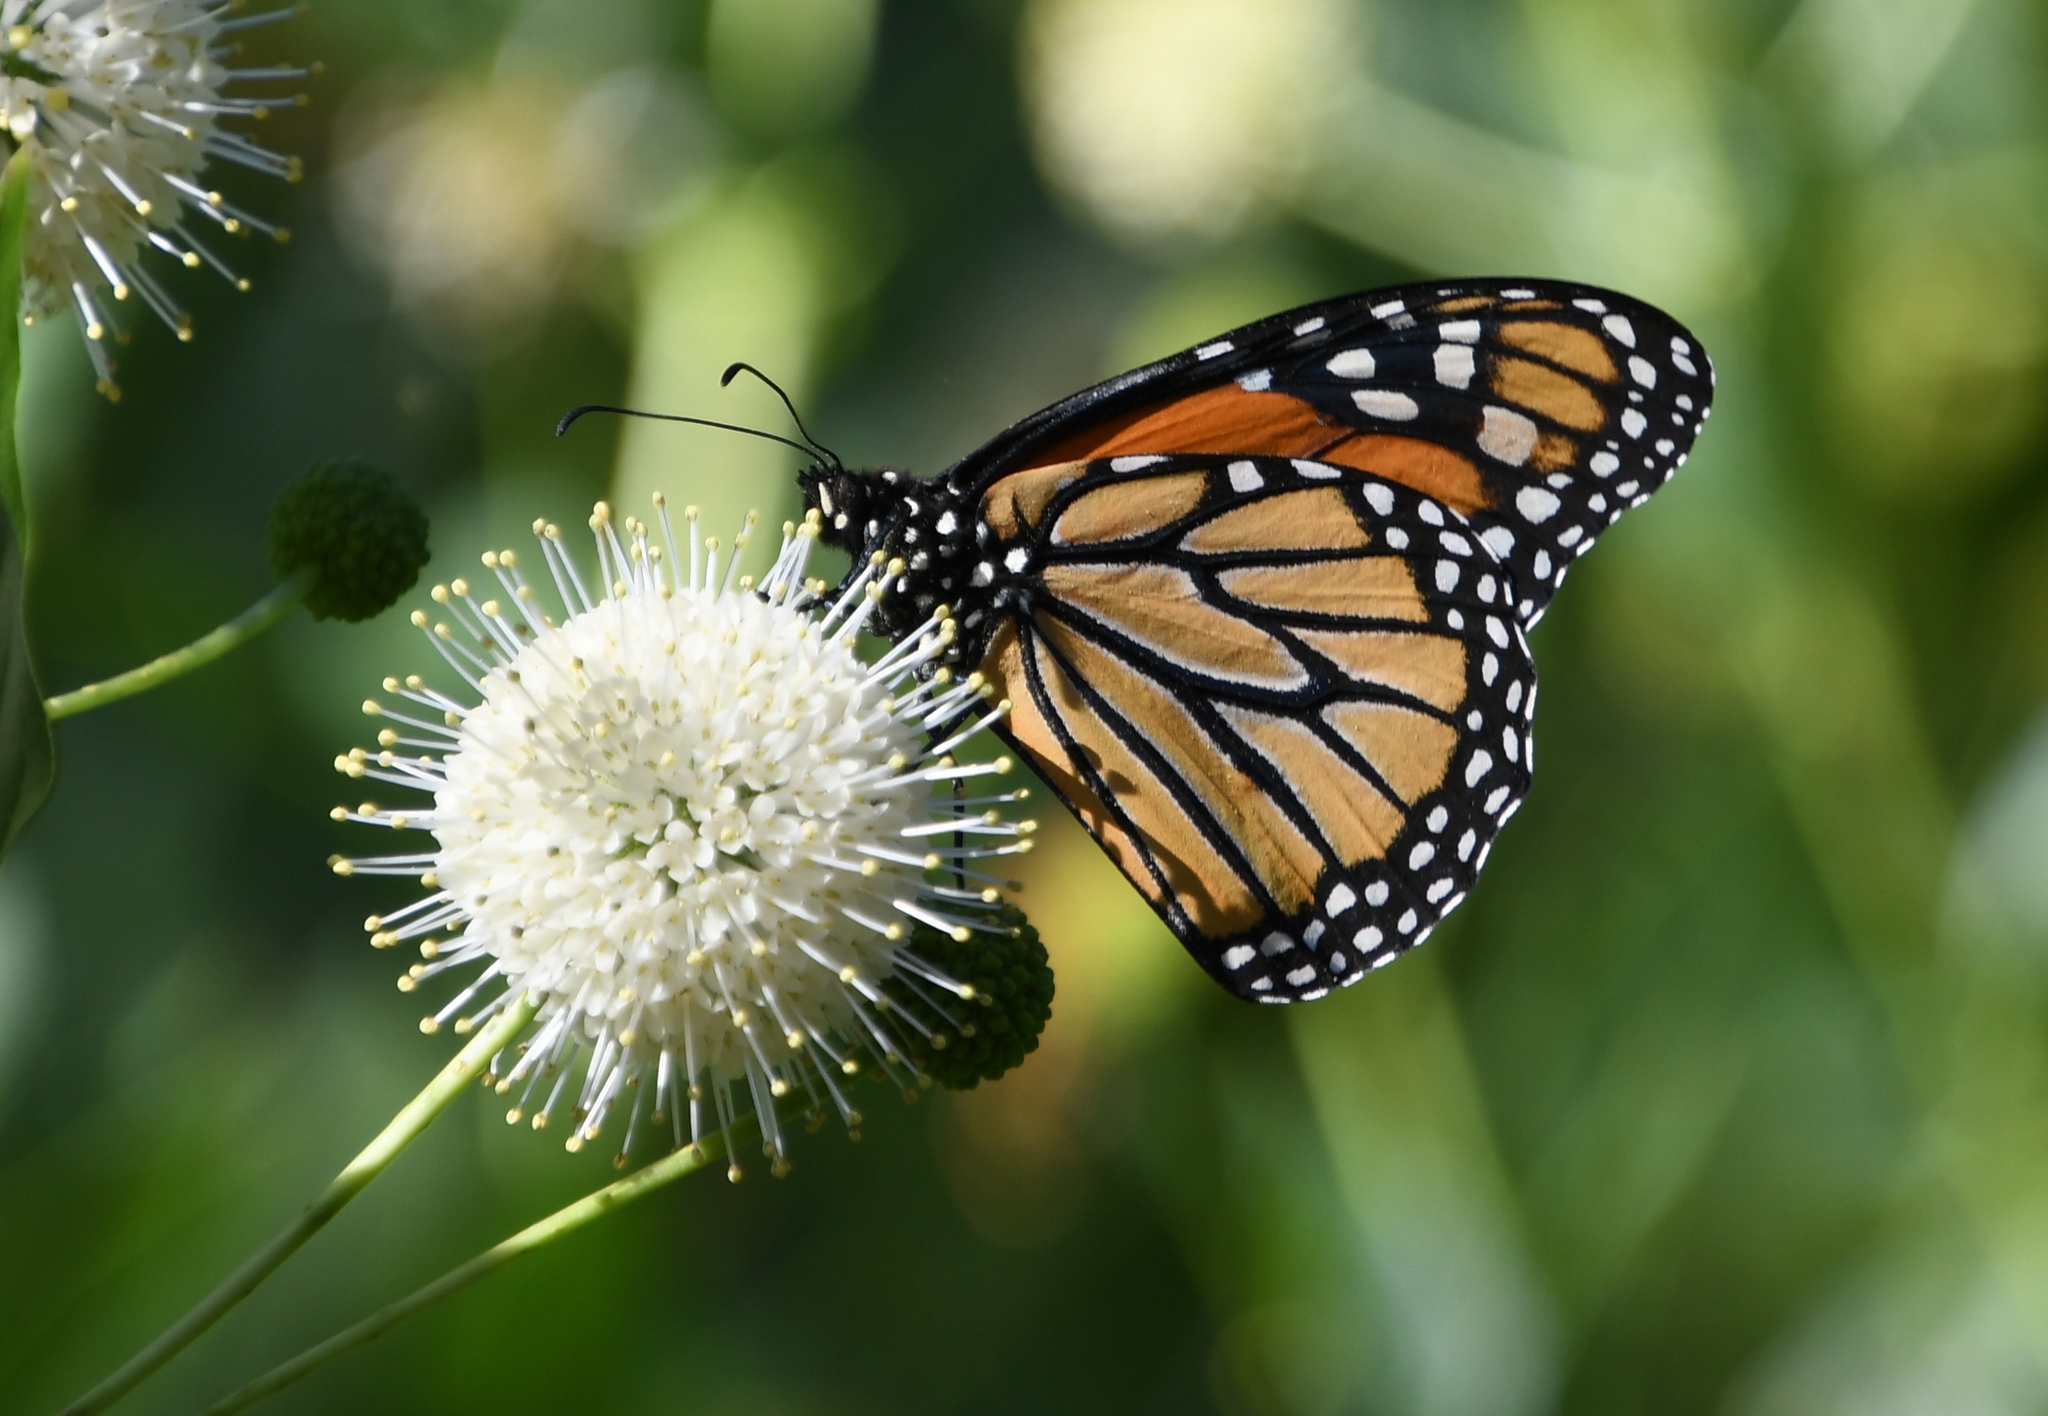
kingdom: Animalia
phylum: Arthropoda
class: Insecta
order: Lepidoptera
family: Nymphalidae
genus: Danaus
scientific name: Danaus plexippus
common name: Monarch
